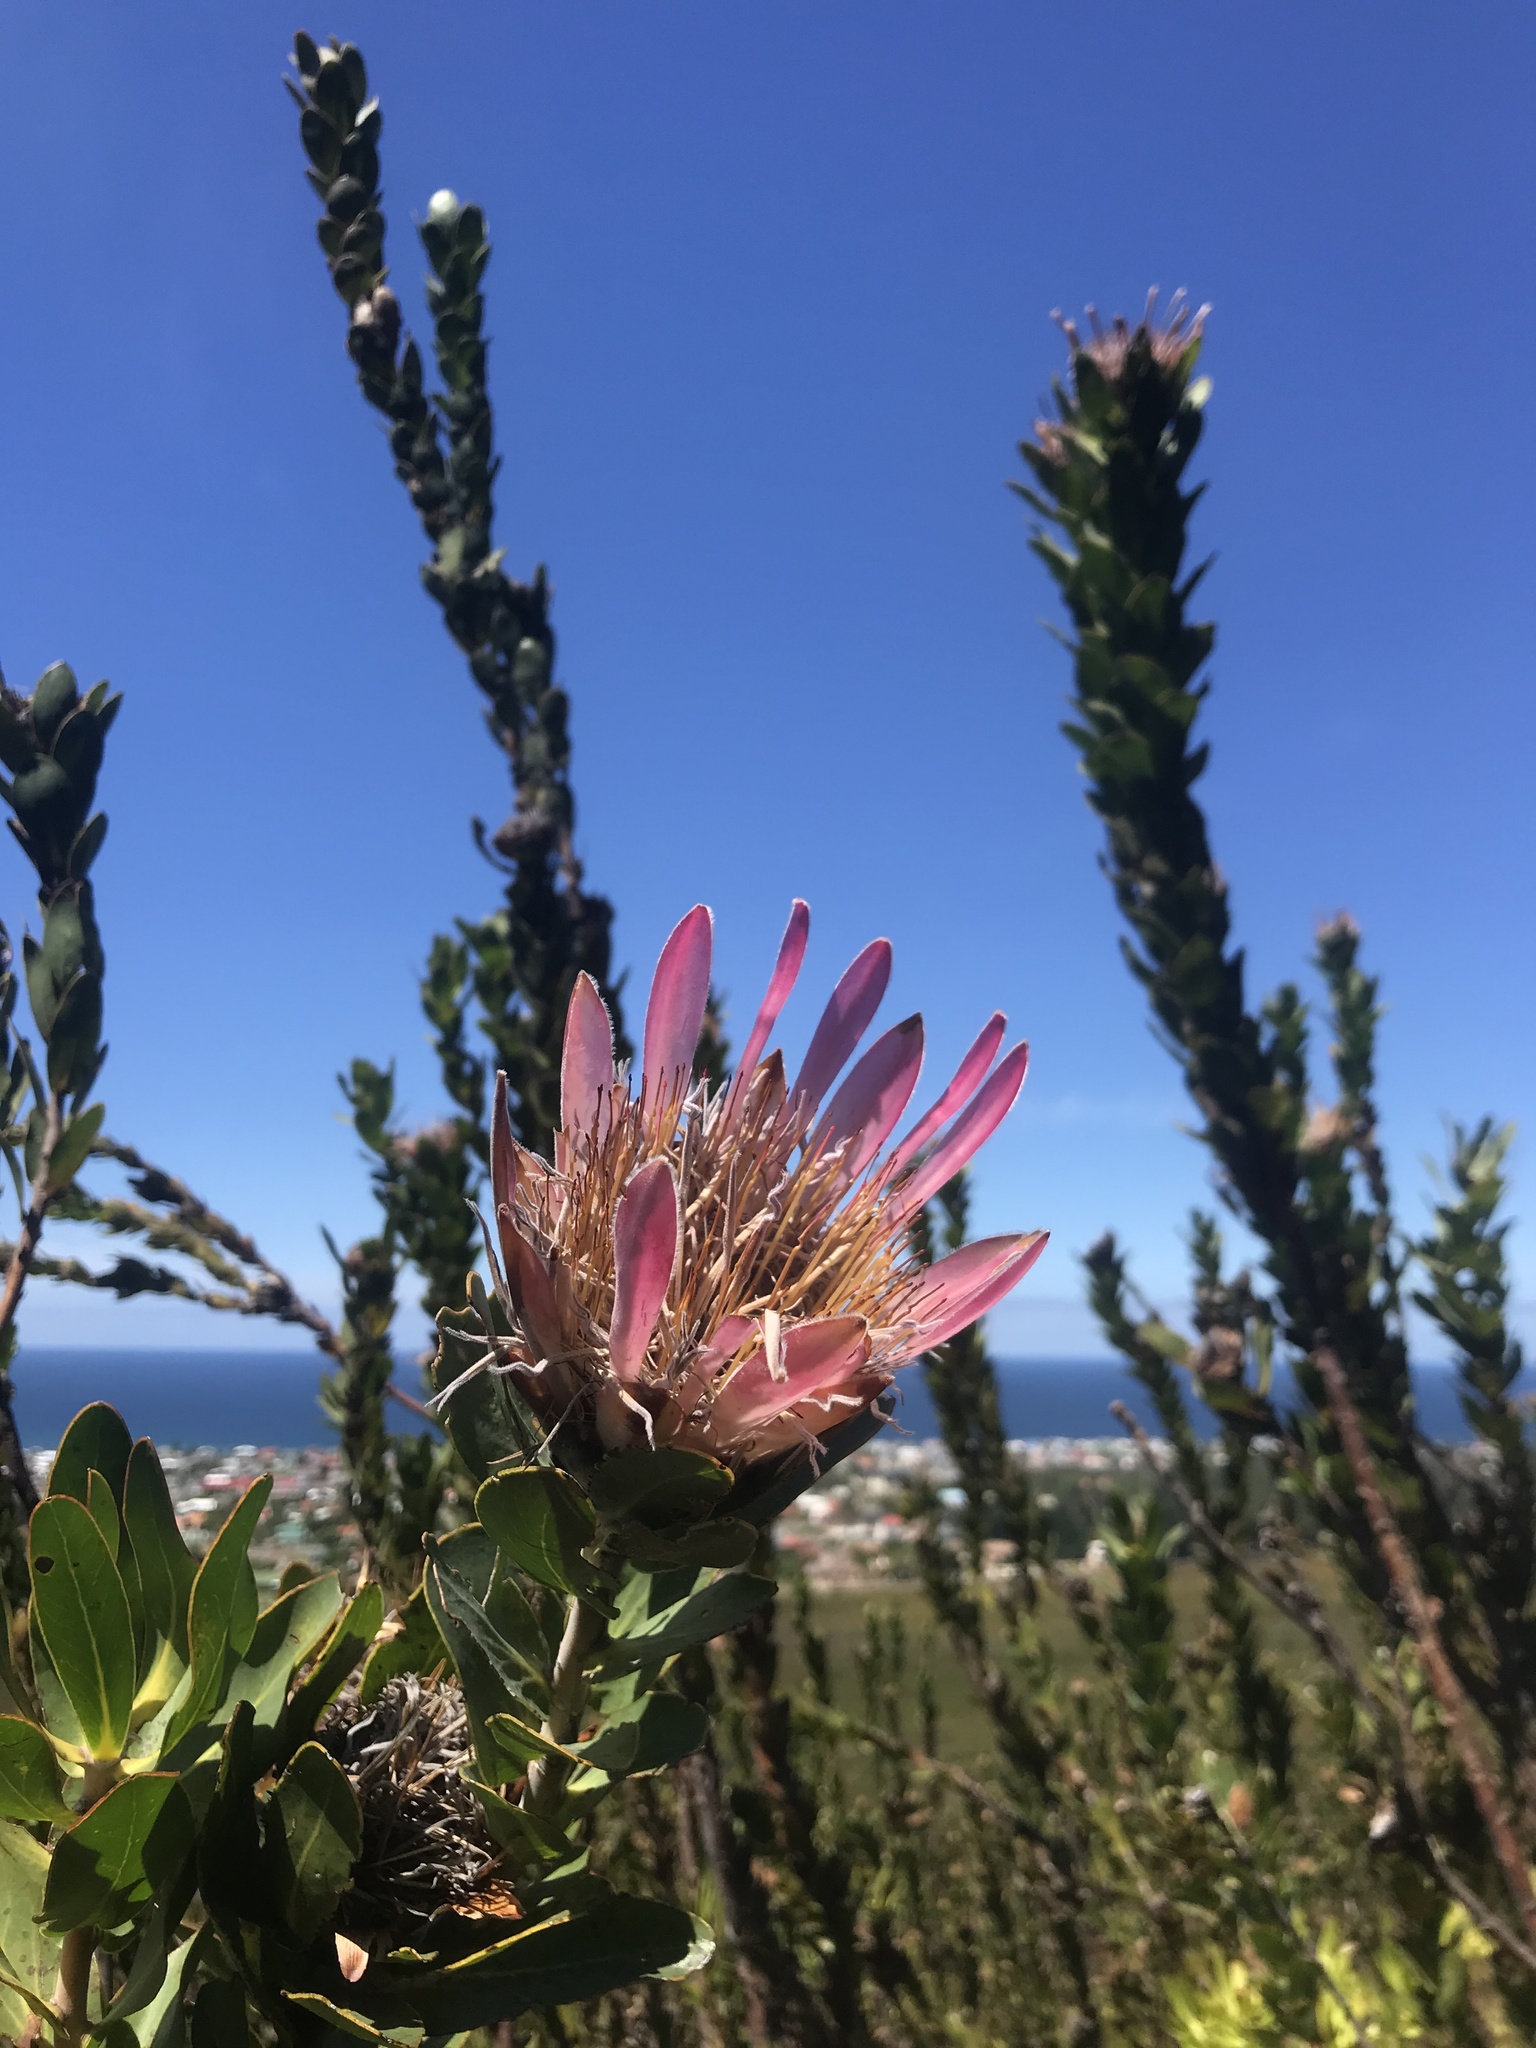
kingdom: Plantae
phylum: Tracheophyta
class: Magnoliopsida
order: Proteales
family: Proteaceae
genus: Protea
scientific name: Protea compacta
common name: Bot river protea
